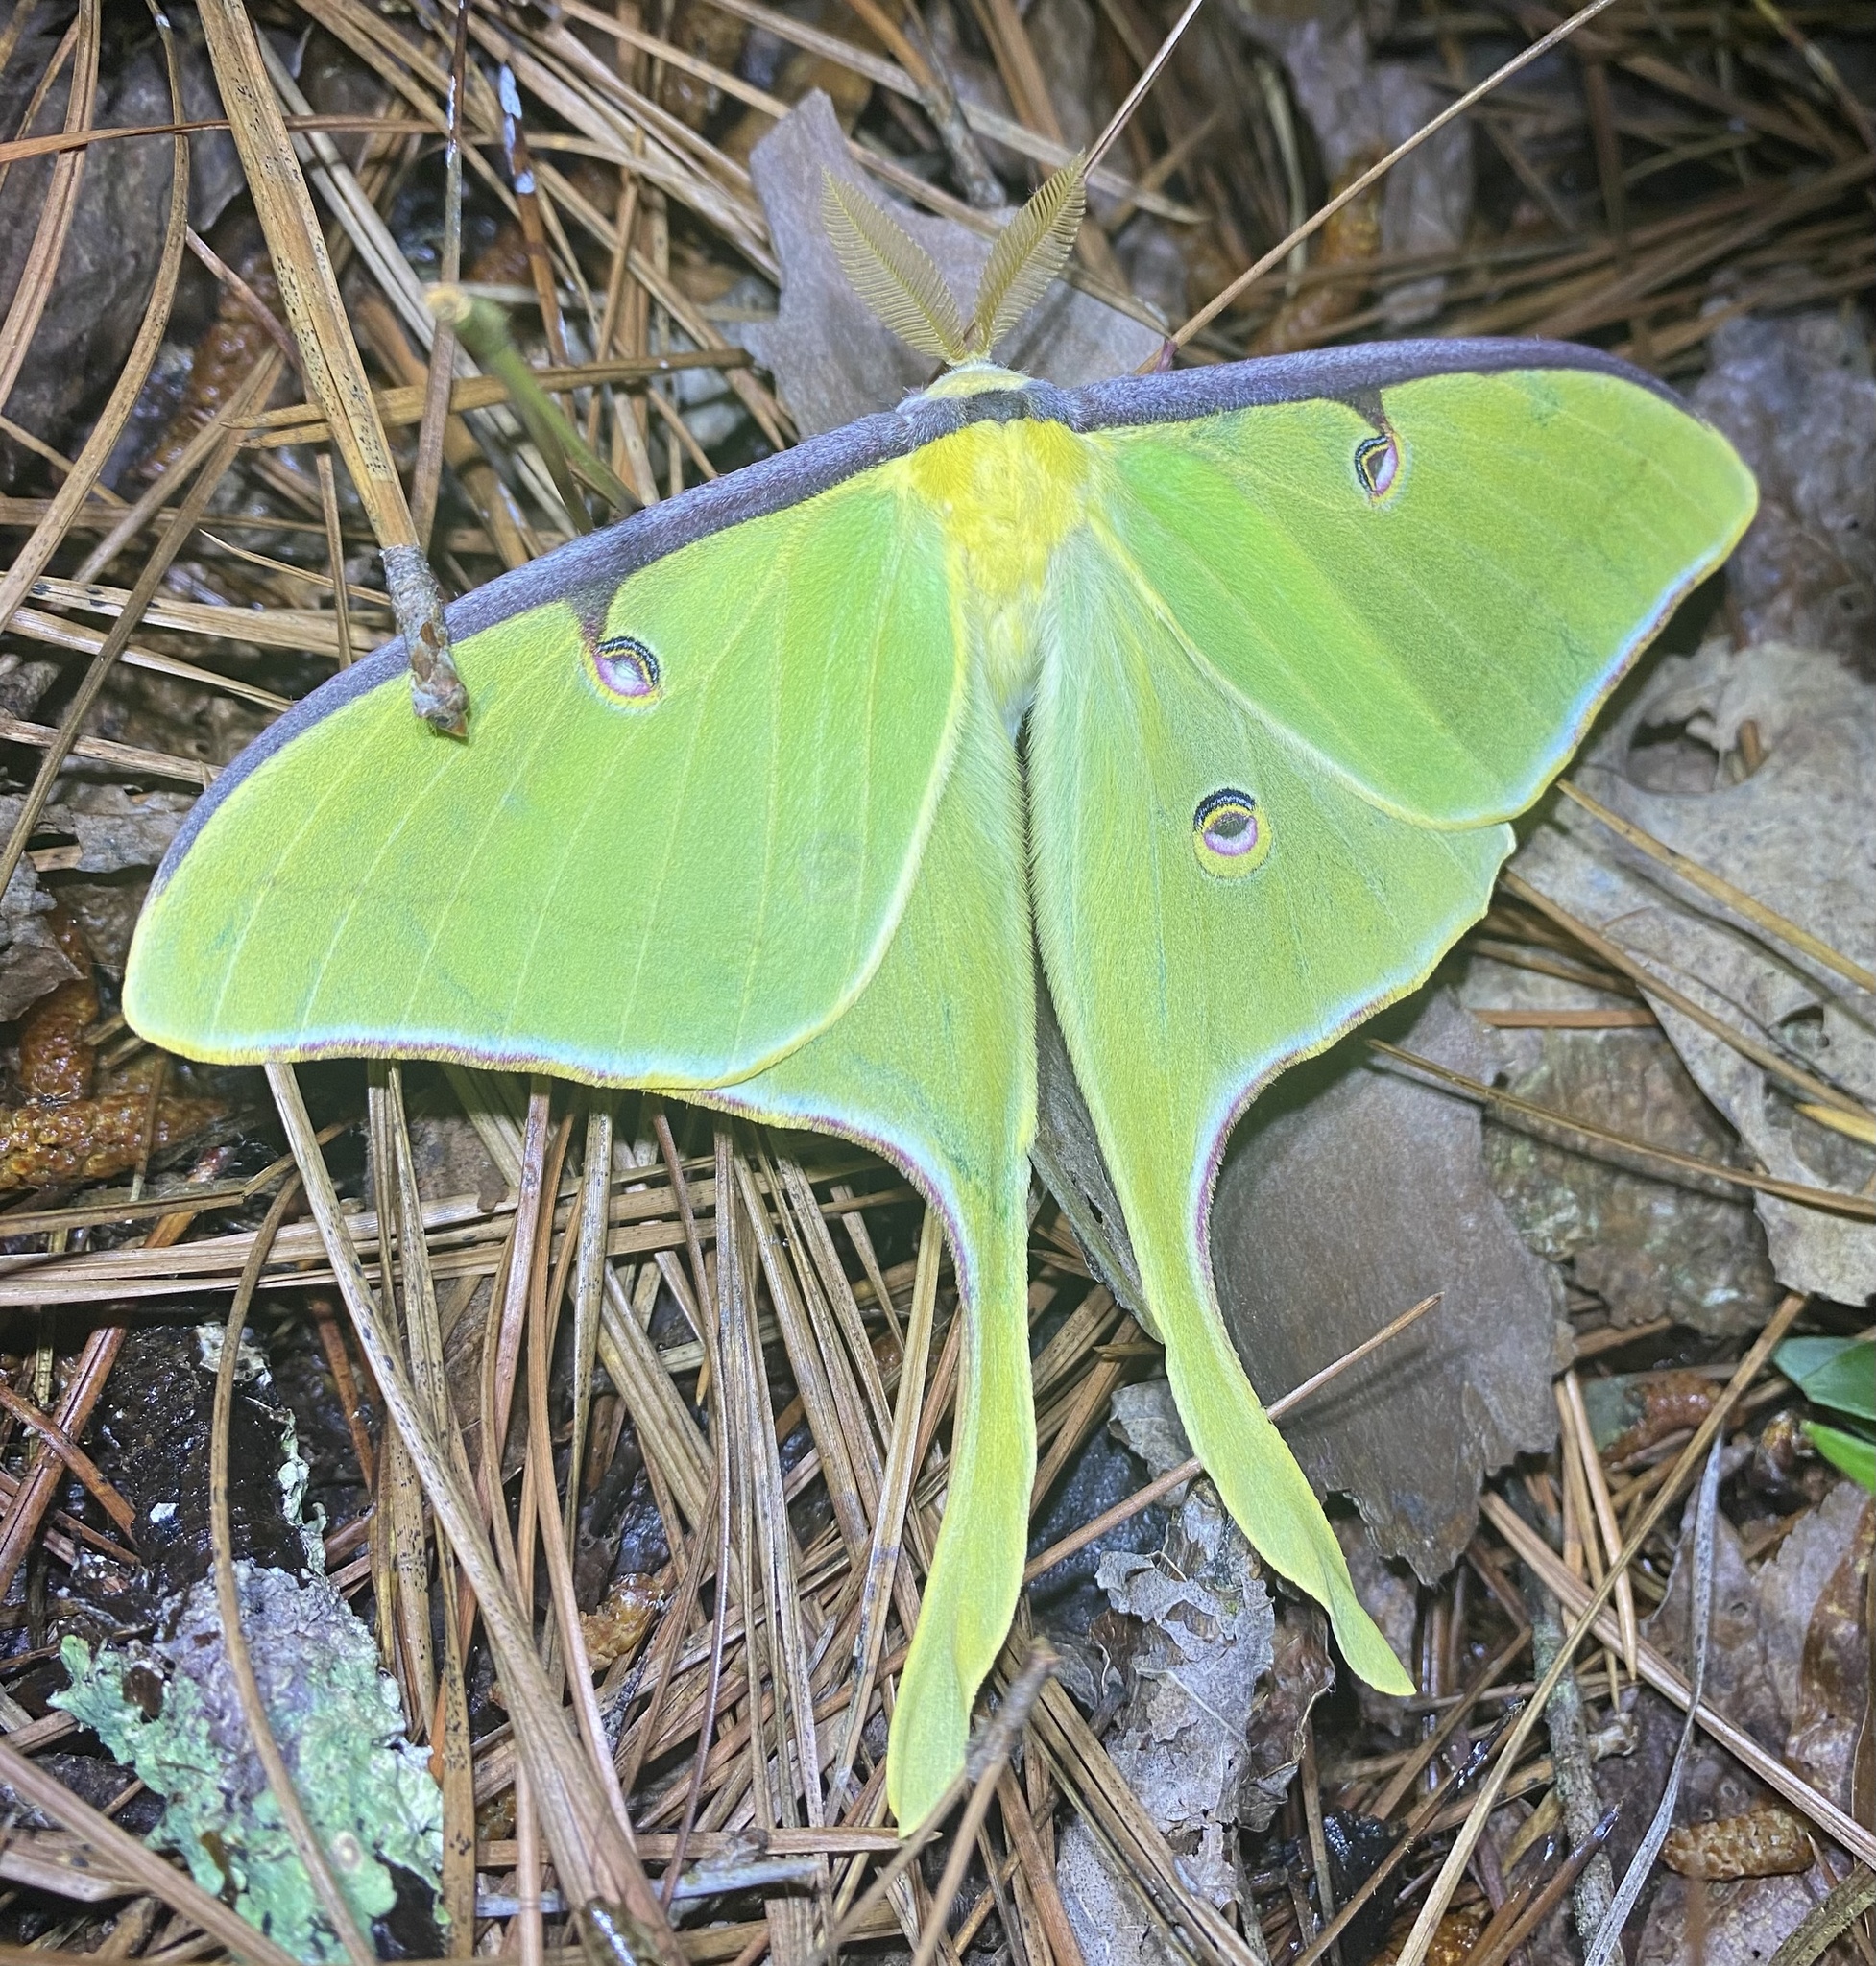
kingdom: Animalia
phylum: Arthropoda
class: Insecta
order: Lepidoptera
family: Saturniidae
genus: Actias
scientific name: Actias luna
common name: Luna moth
